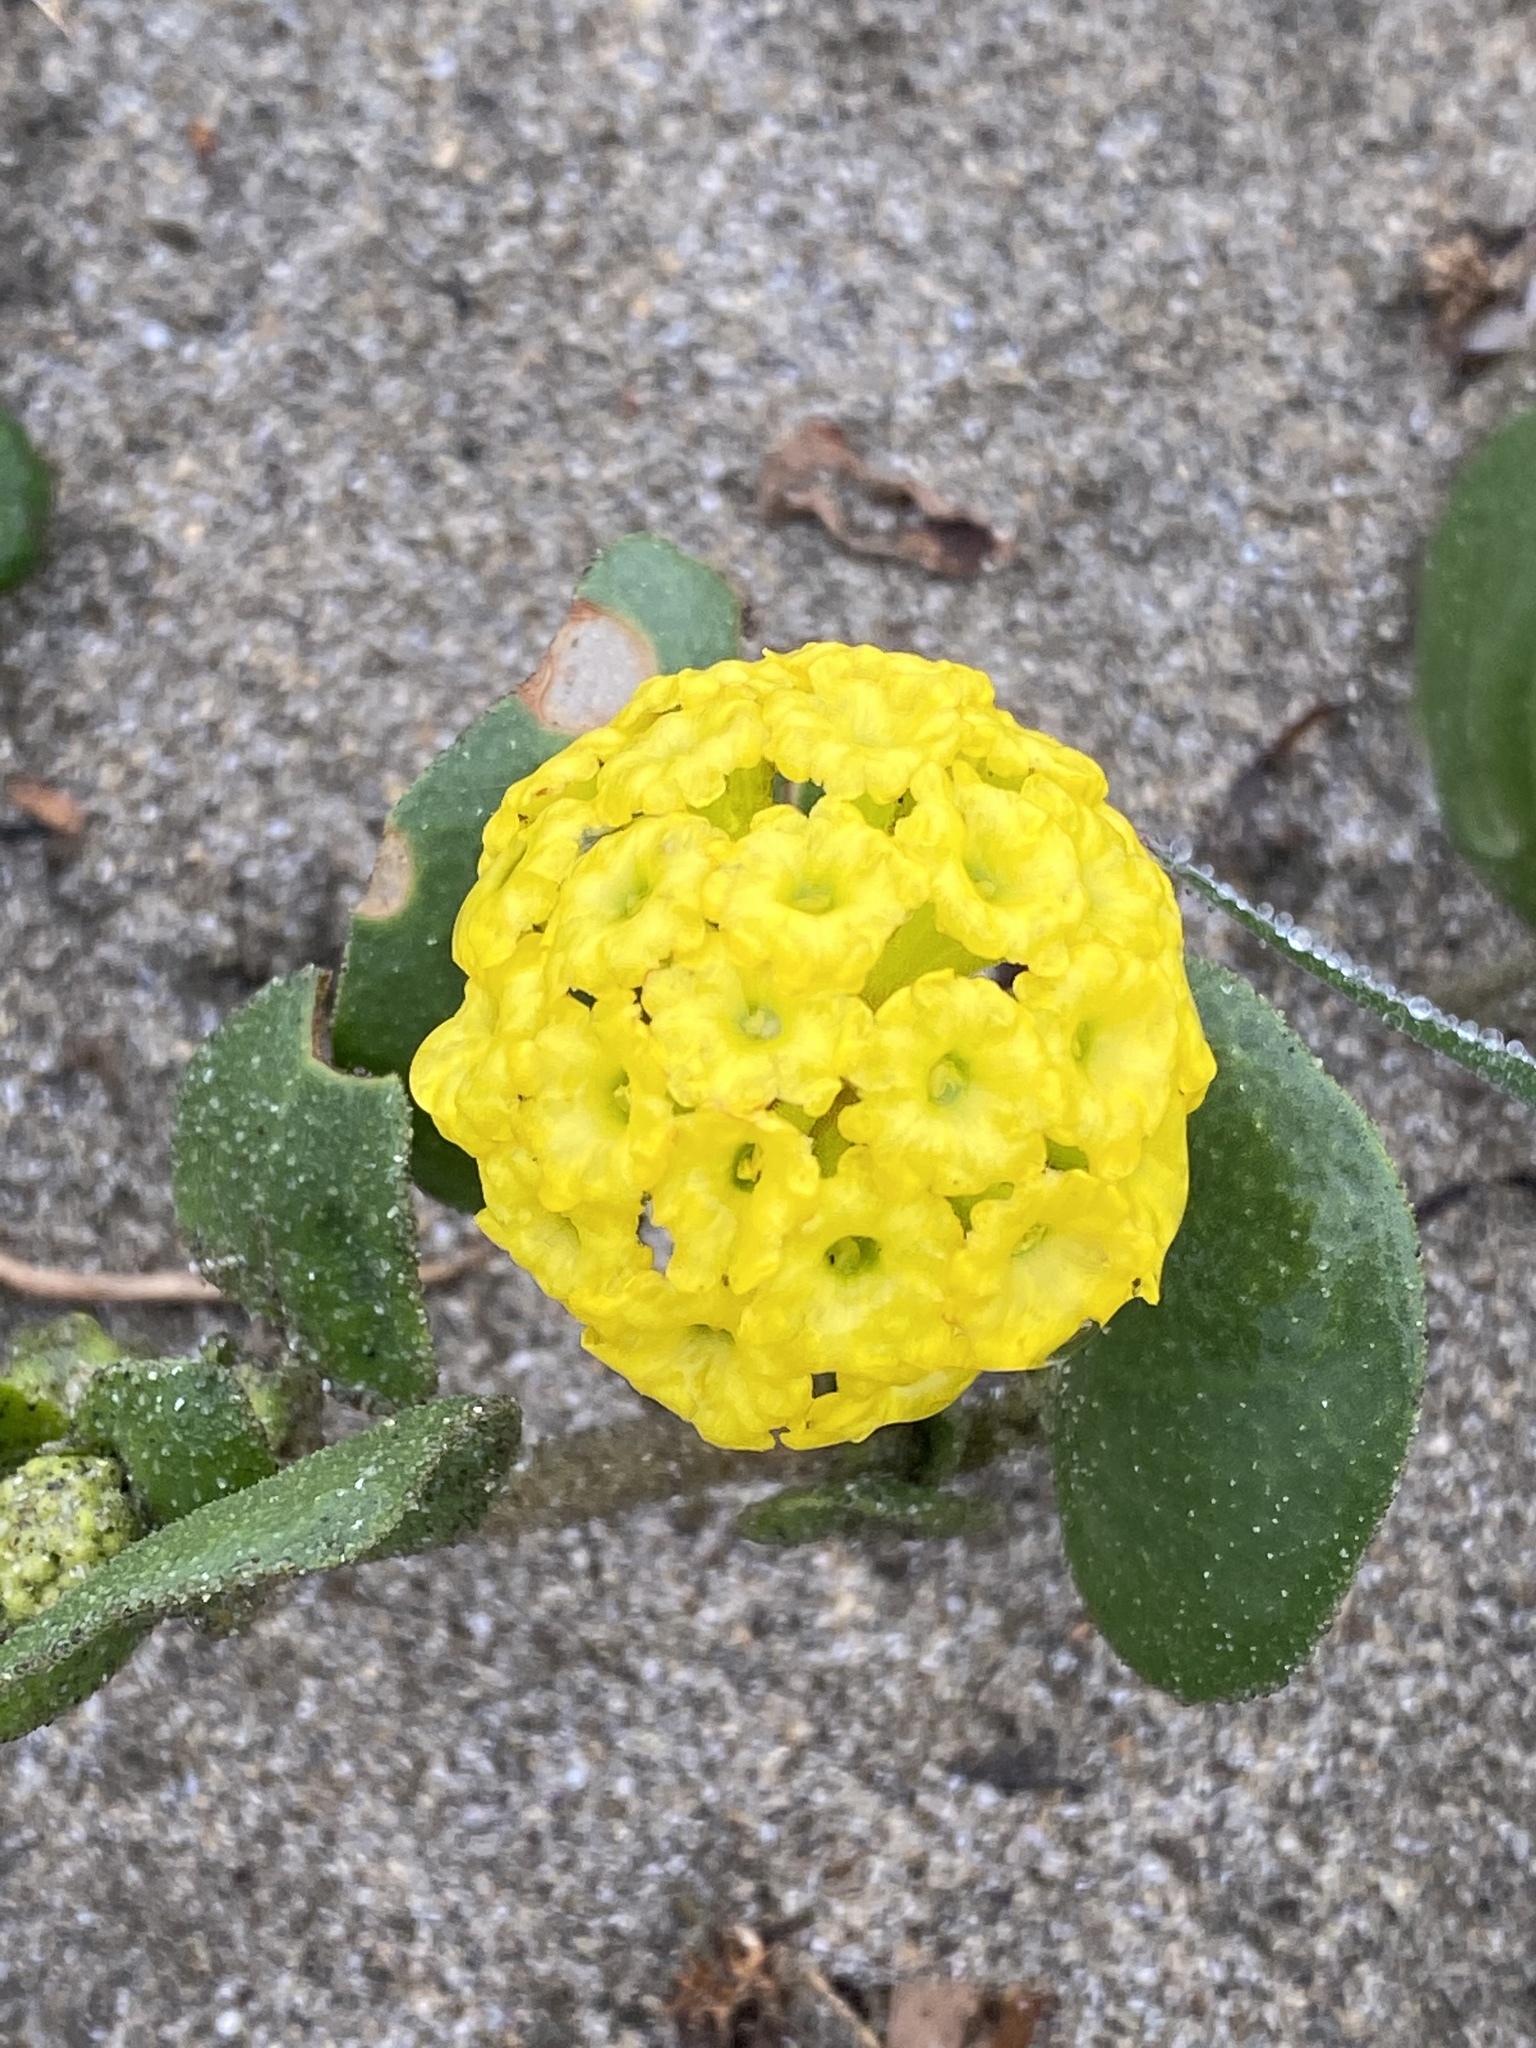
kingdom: Plantae
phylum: Tracheophyta
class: Magnoliopsida
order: Caryophyllales
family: Nyctaginaceae
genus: Abronia
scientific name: Abronia latifolia
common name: Yellow sand-verbena
